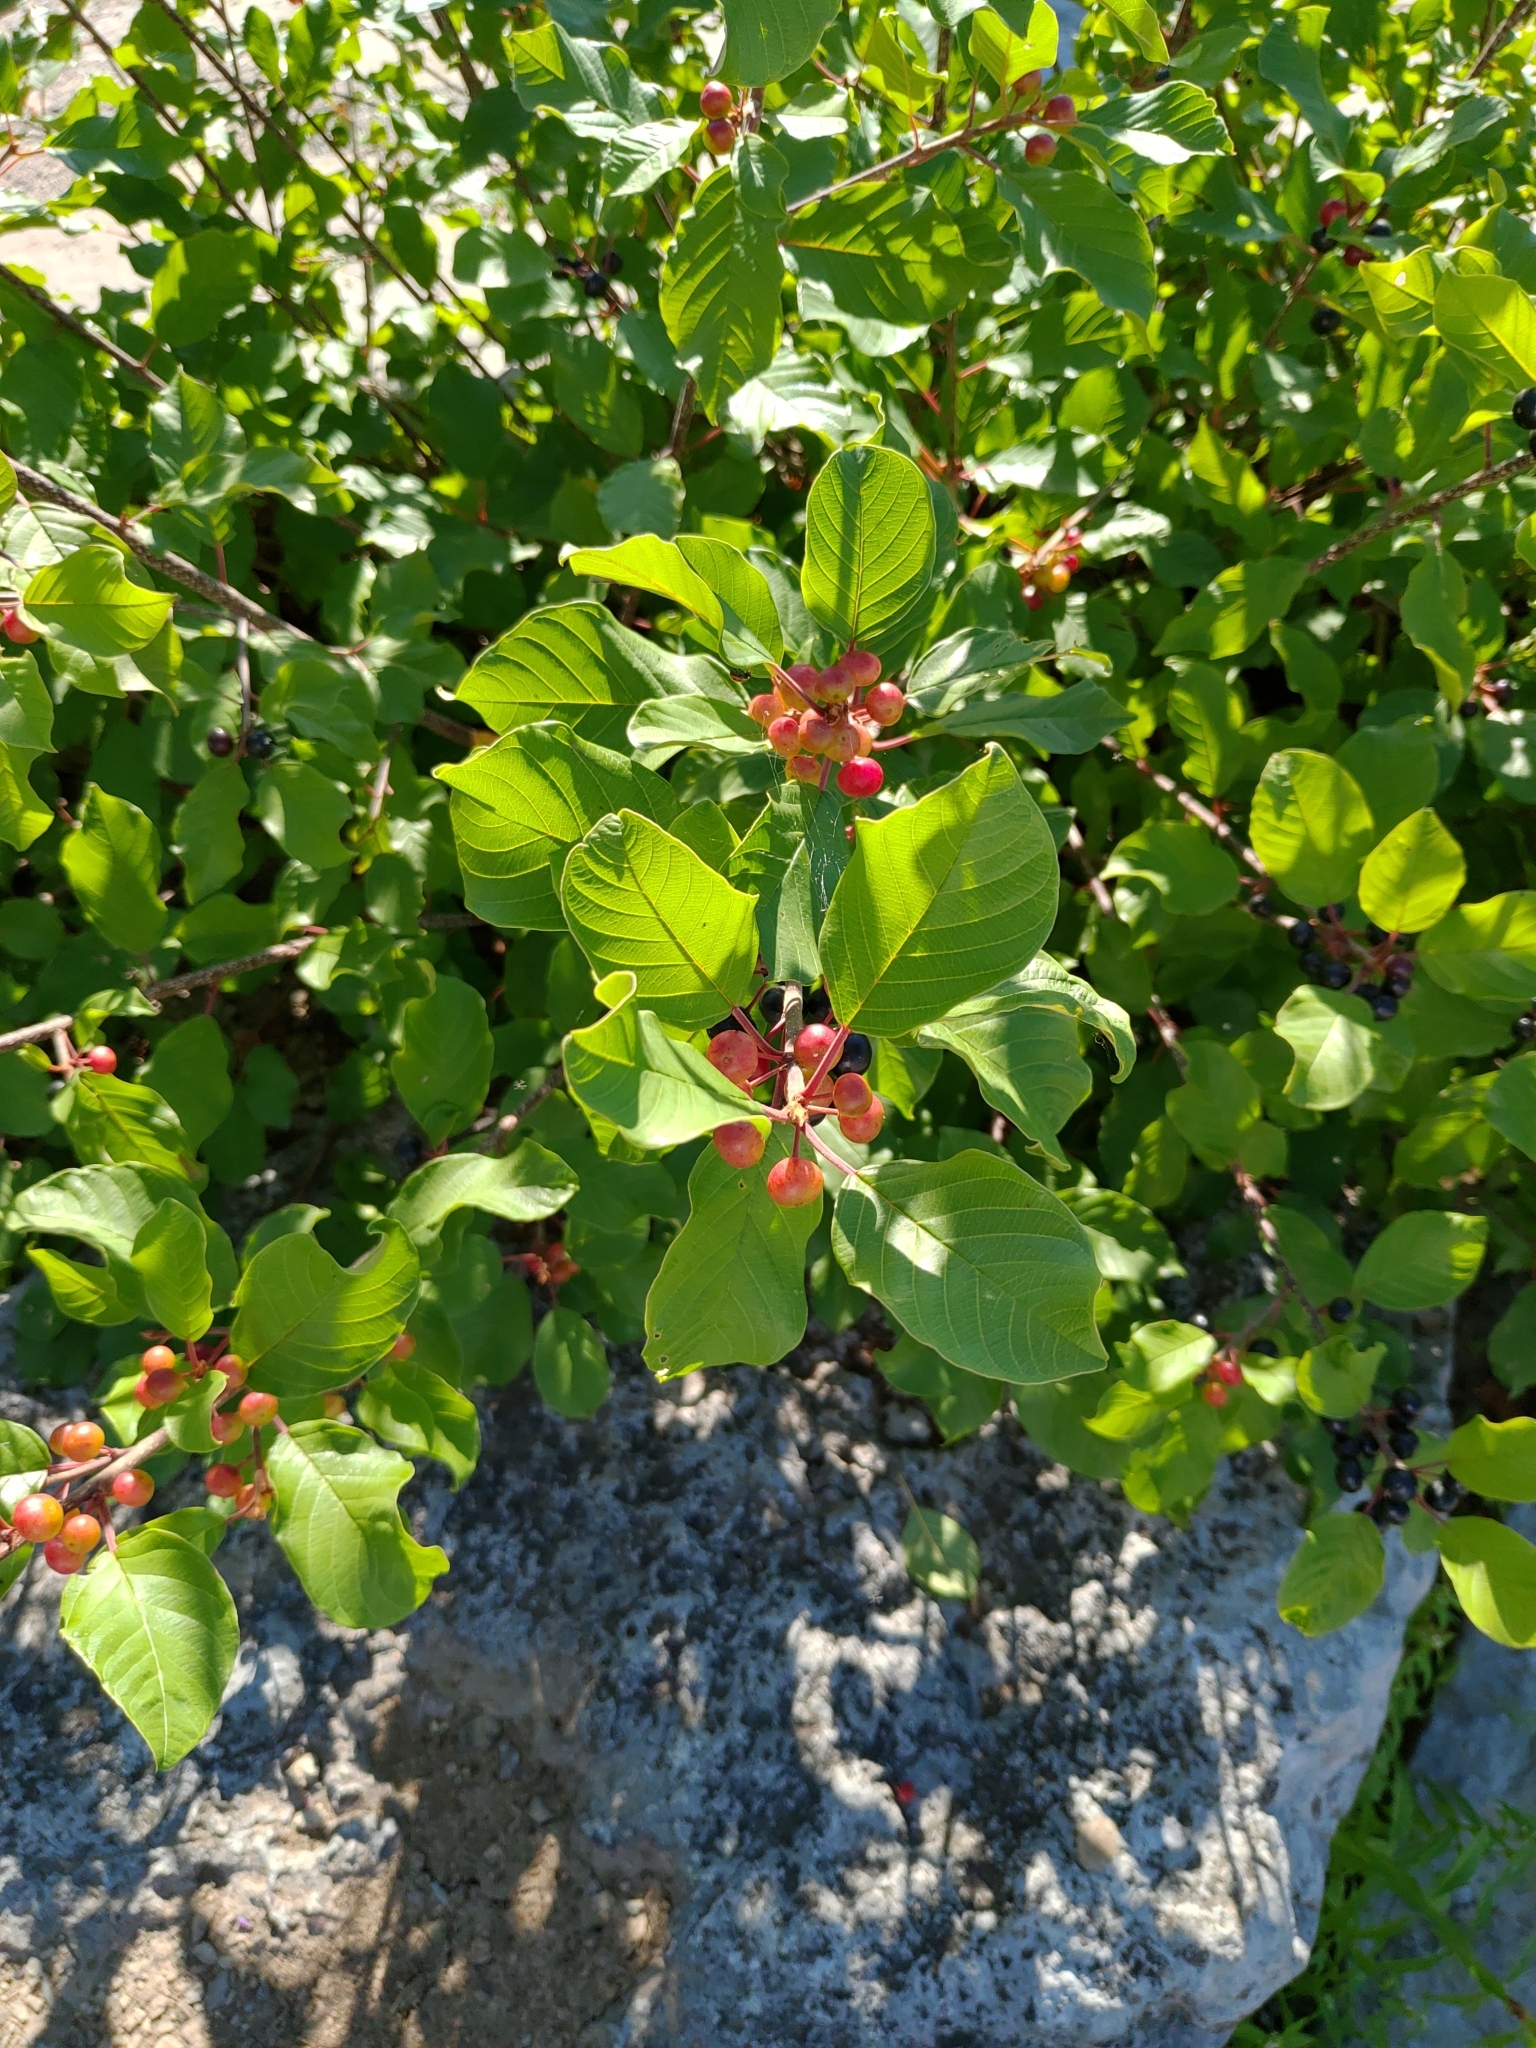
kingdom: Plantae
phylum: Tracheophyta
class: Magnoliopsida
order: Rosales
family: Rhamnaceae
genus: Frangula
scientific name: Frangula alnus
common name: Alder buckthorn
